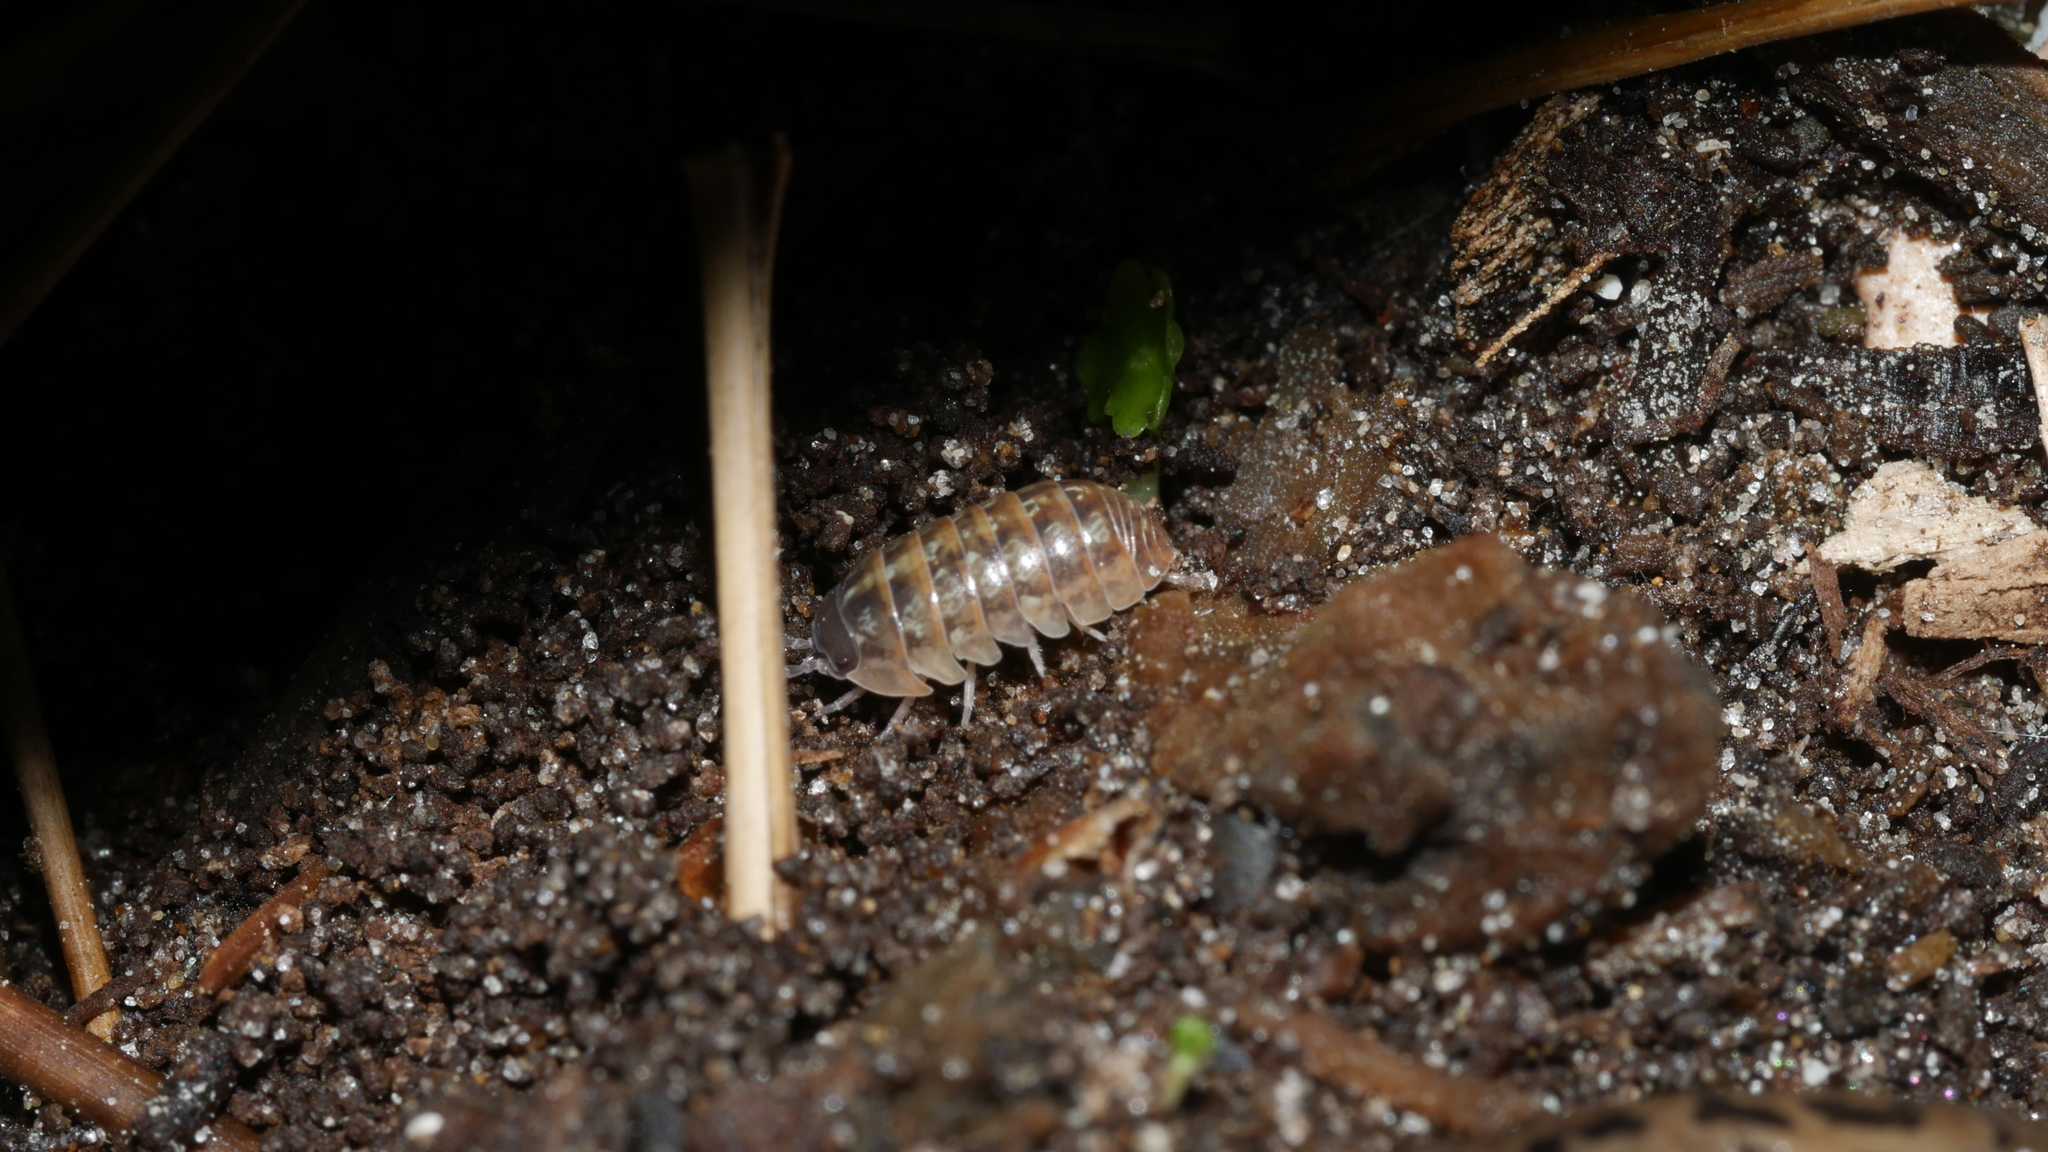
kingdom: Animalia
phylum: Arthropoda
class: Malacostraca
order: Isopoda
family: Armadillidiidae
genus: Armadillidium
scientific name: Armadillidium vulgare
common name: Common pill woodlouse
